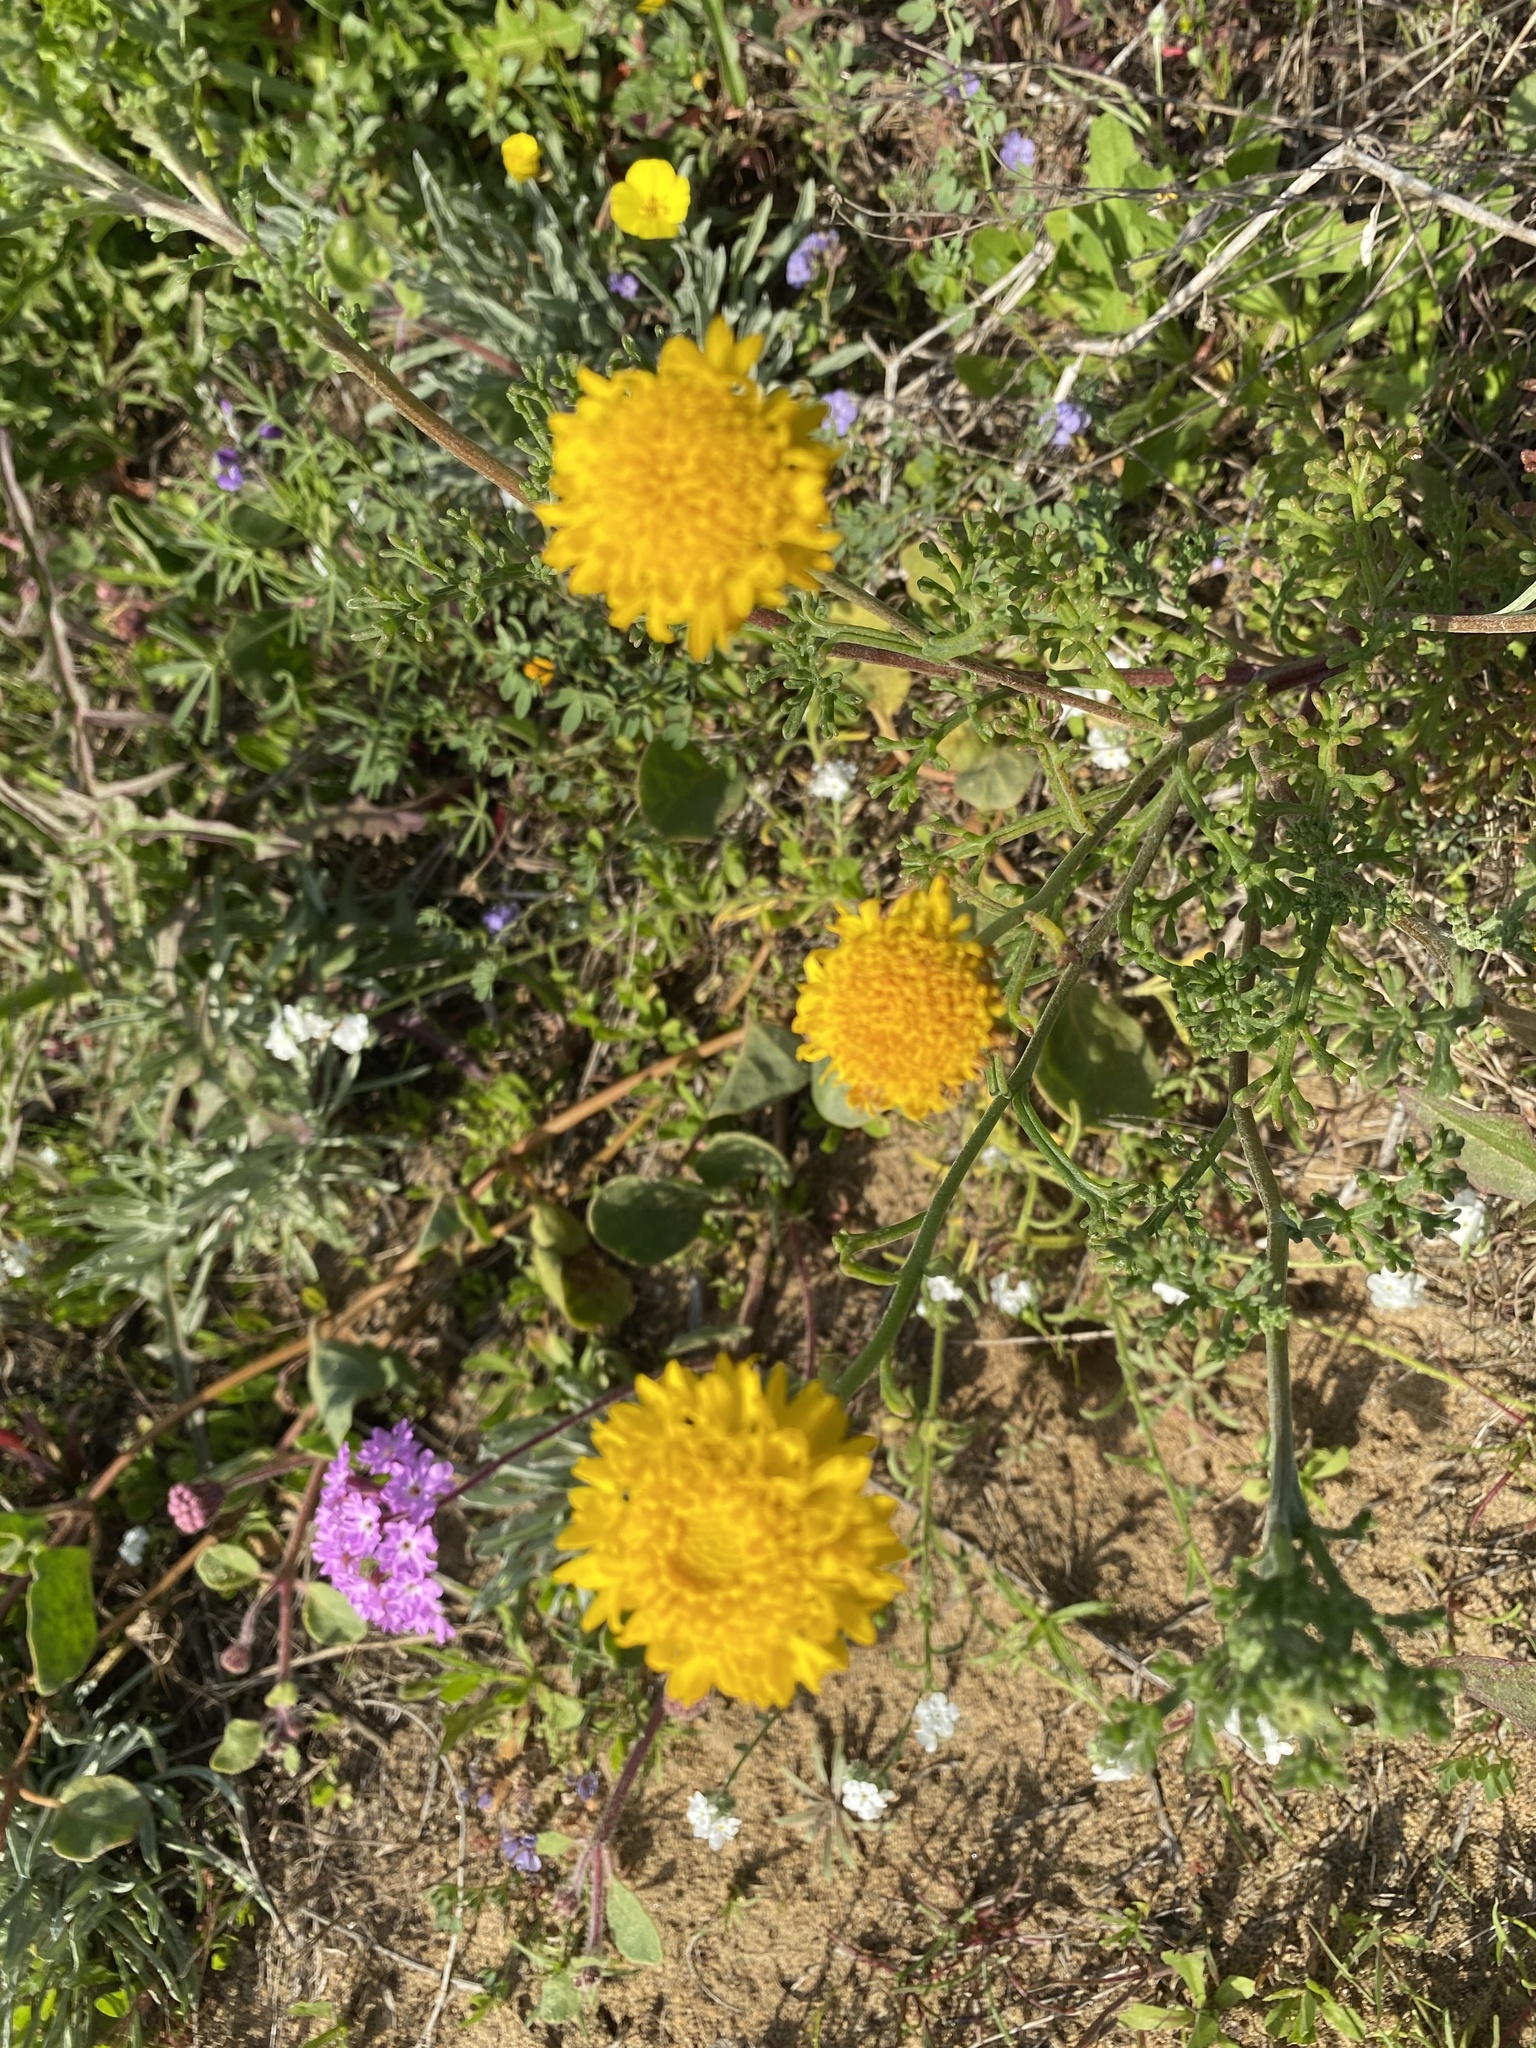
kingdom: Plantae
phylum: Tracheophyta
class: Magnoliopsida
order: Asterales
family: Asteraceae
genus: Chaenactis
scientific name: Chaenactis glabriuscula
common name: Yellow pincushion
